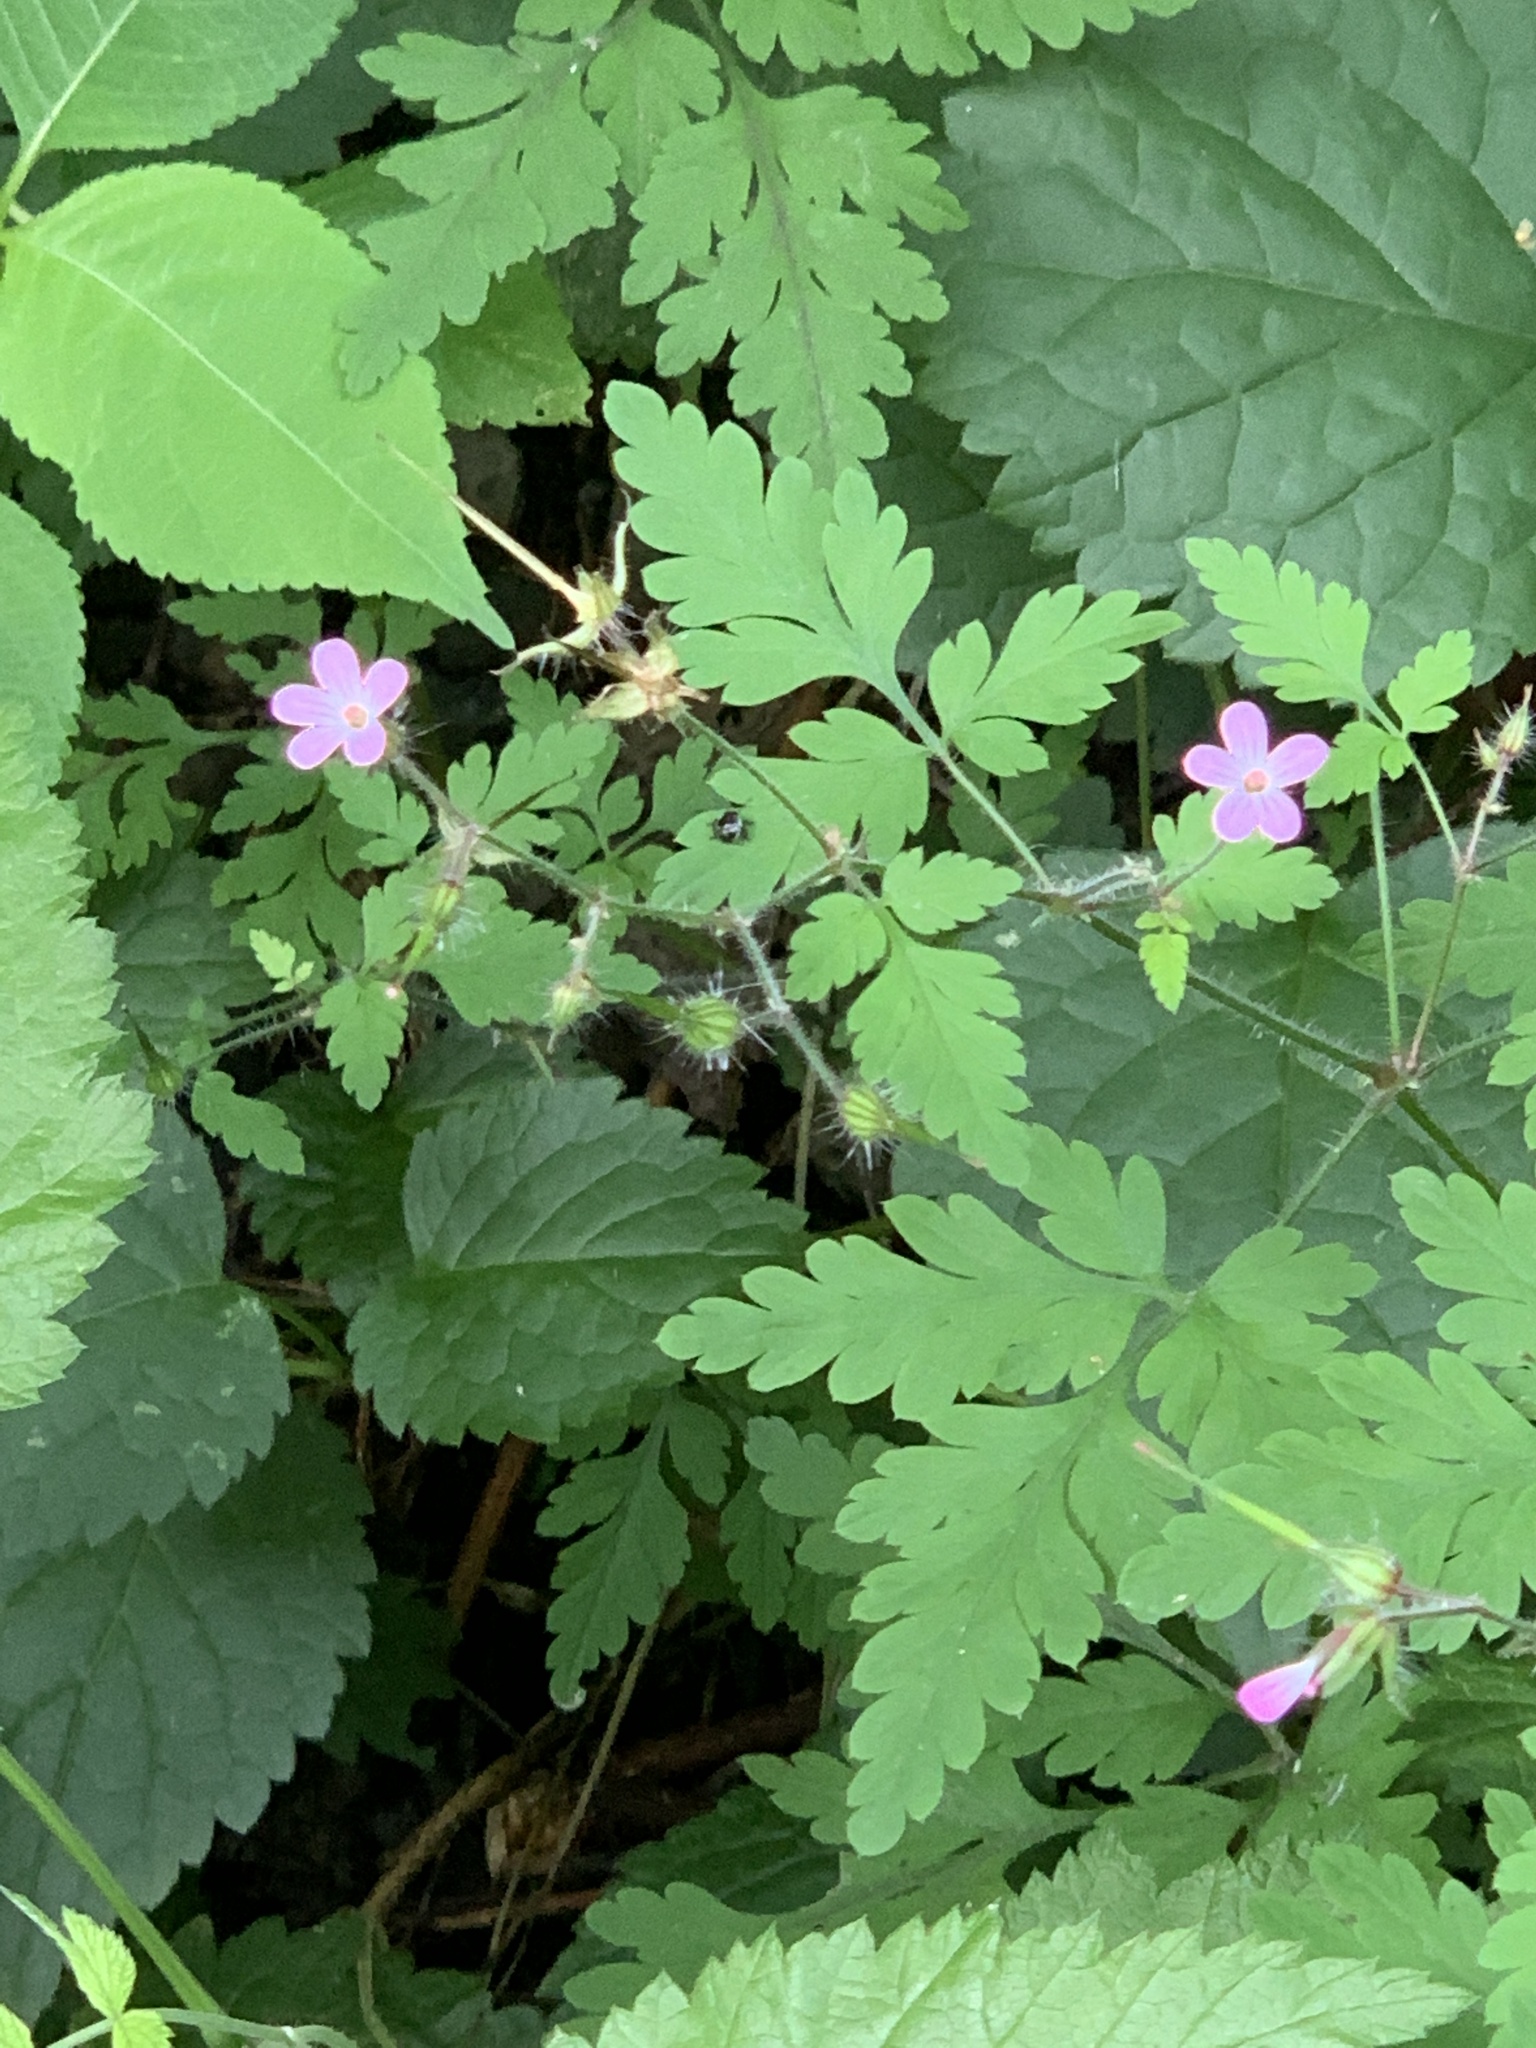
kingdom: Plantae
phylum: Tracheophyta
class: Magnoliopsida
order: Geraniales
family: Geraniaceae
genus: Geranium
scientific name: Geranium robertianum
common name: Herb-robert
